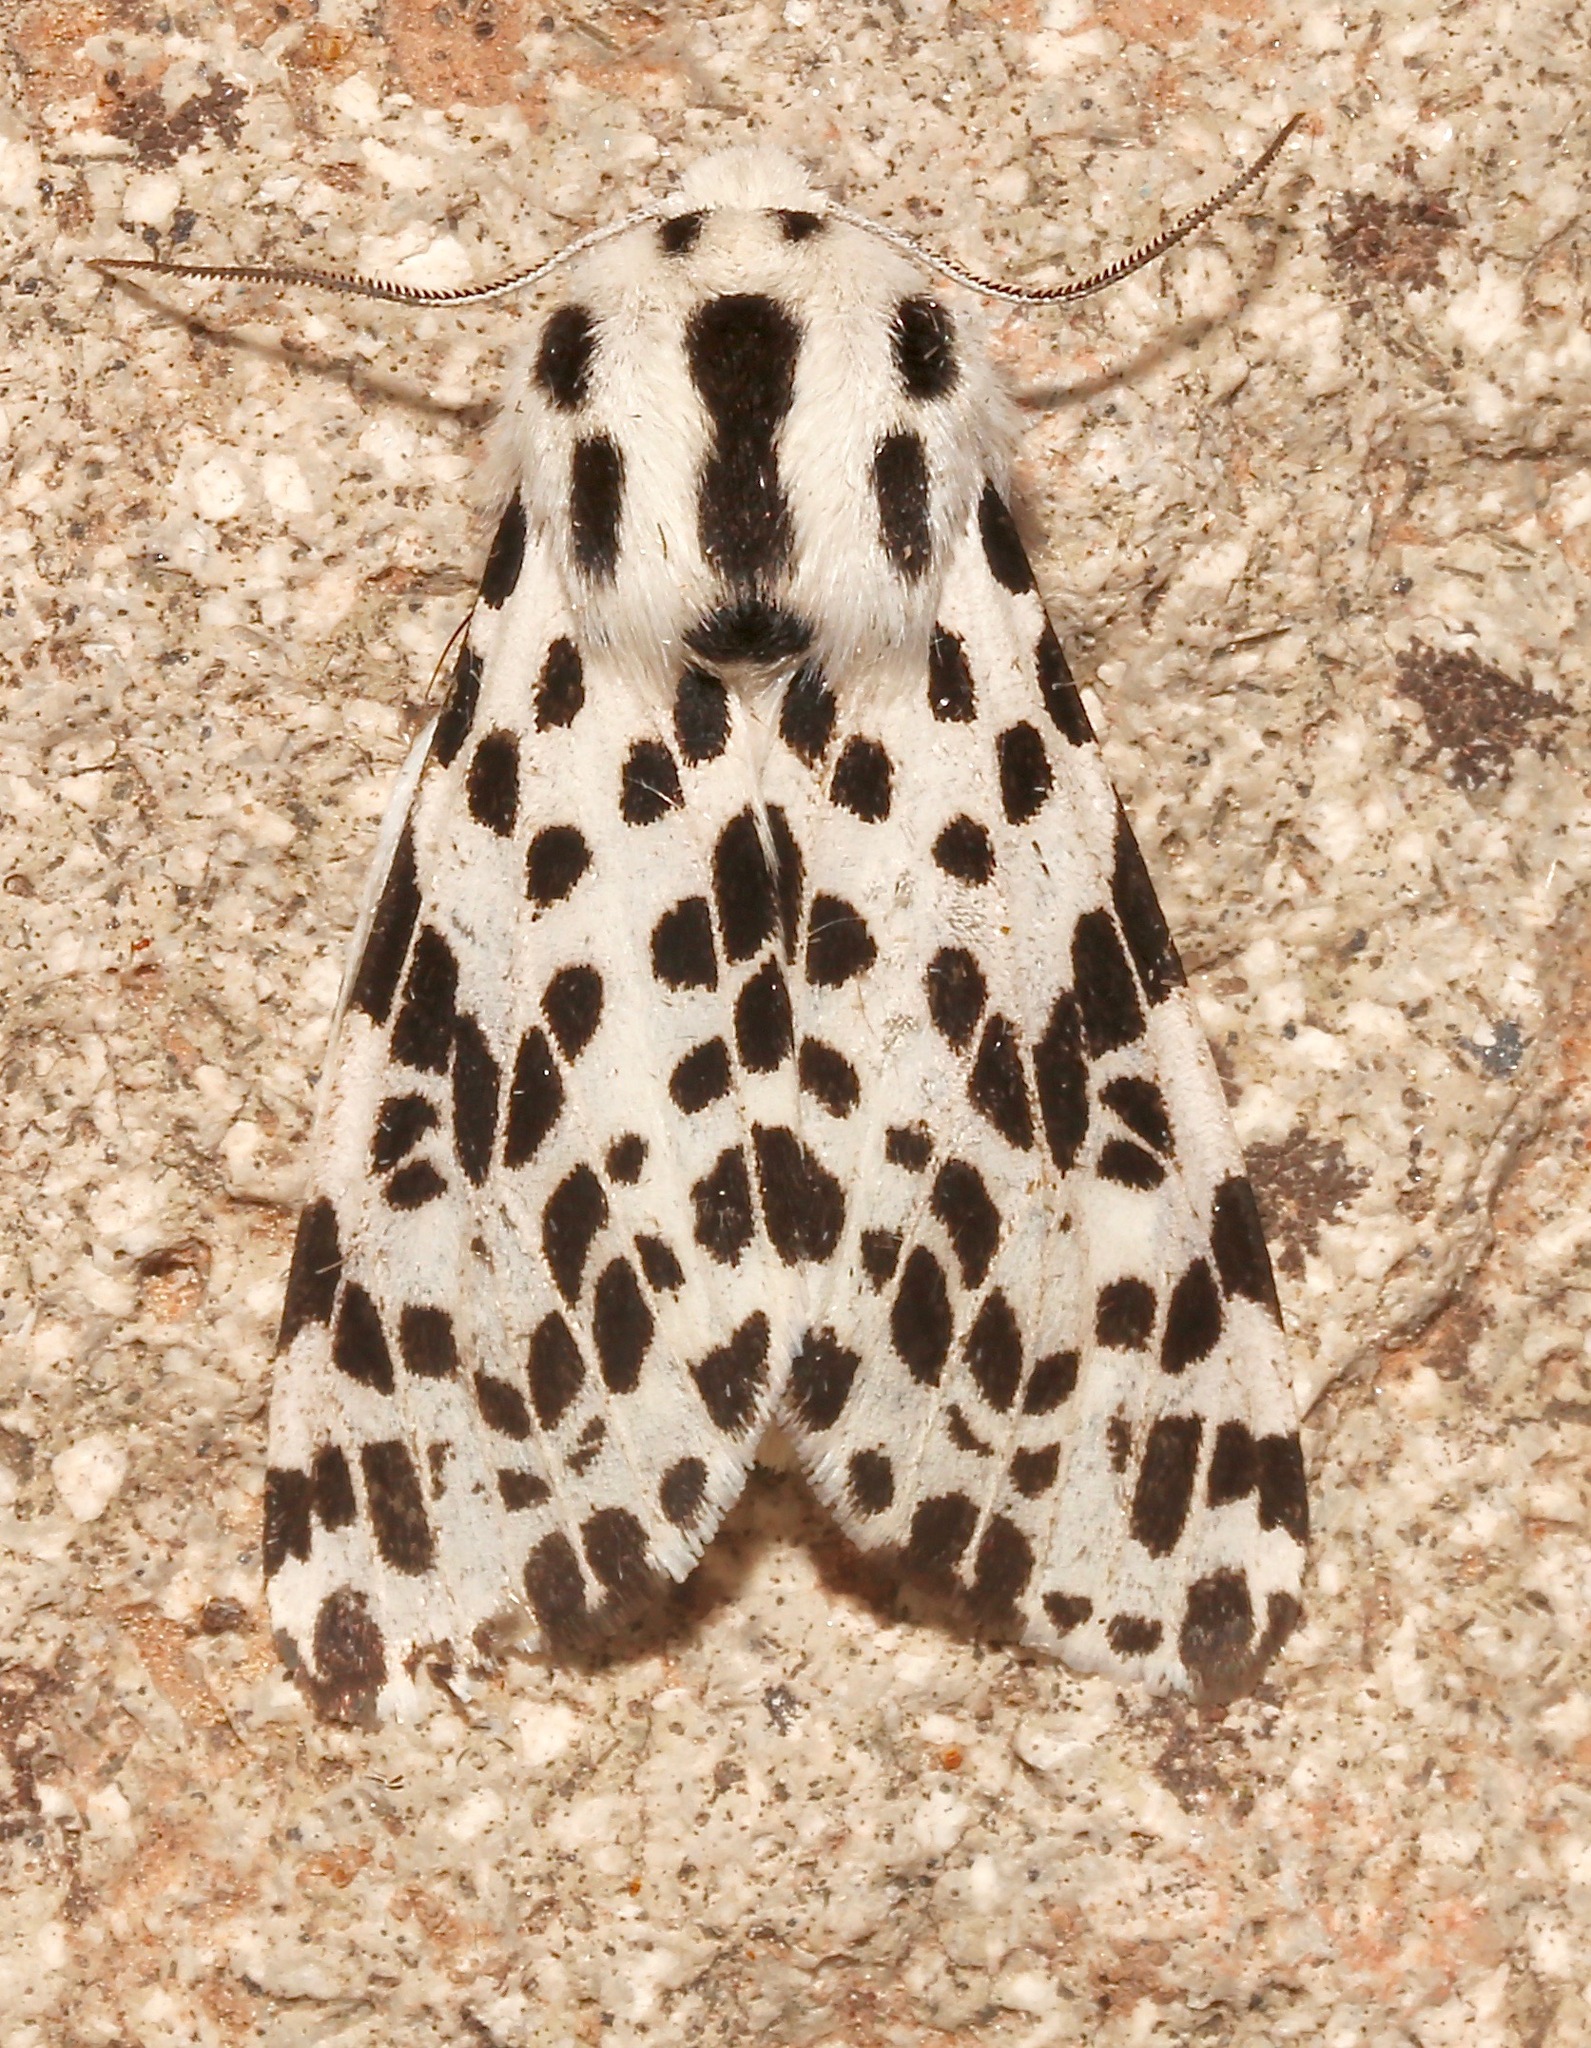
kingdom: Animalia
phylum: Arthropoda
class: Insecta
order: Lepidoptera
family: Erebidae
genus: Hypercompe
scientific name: Hypercompe permaculata
